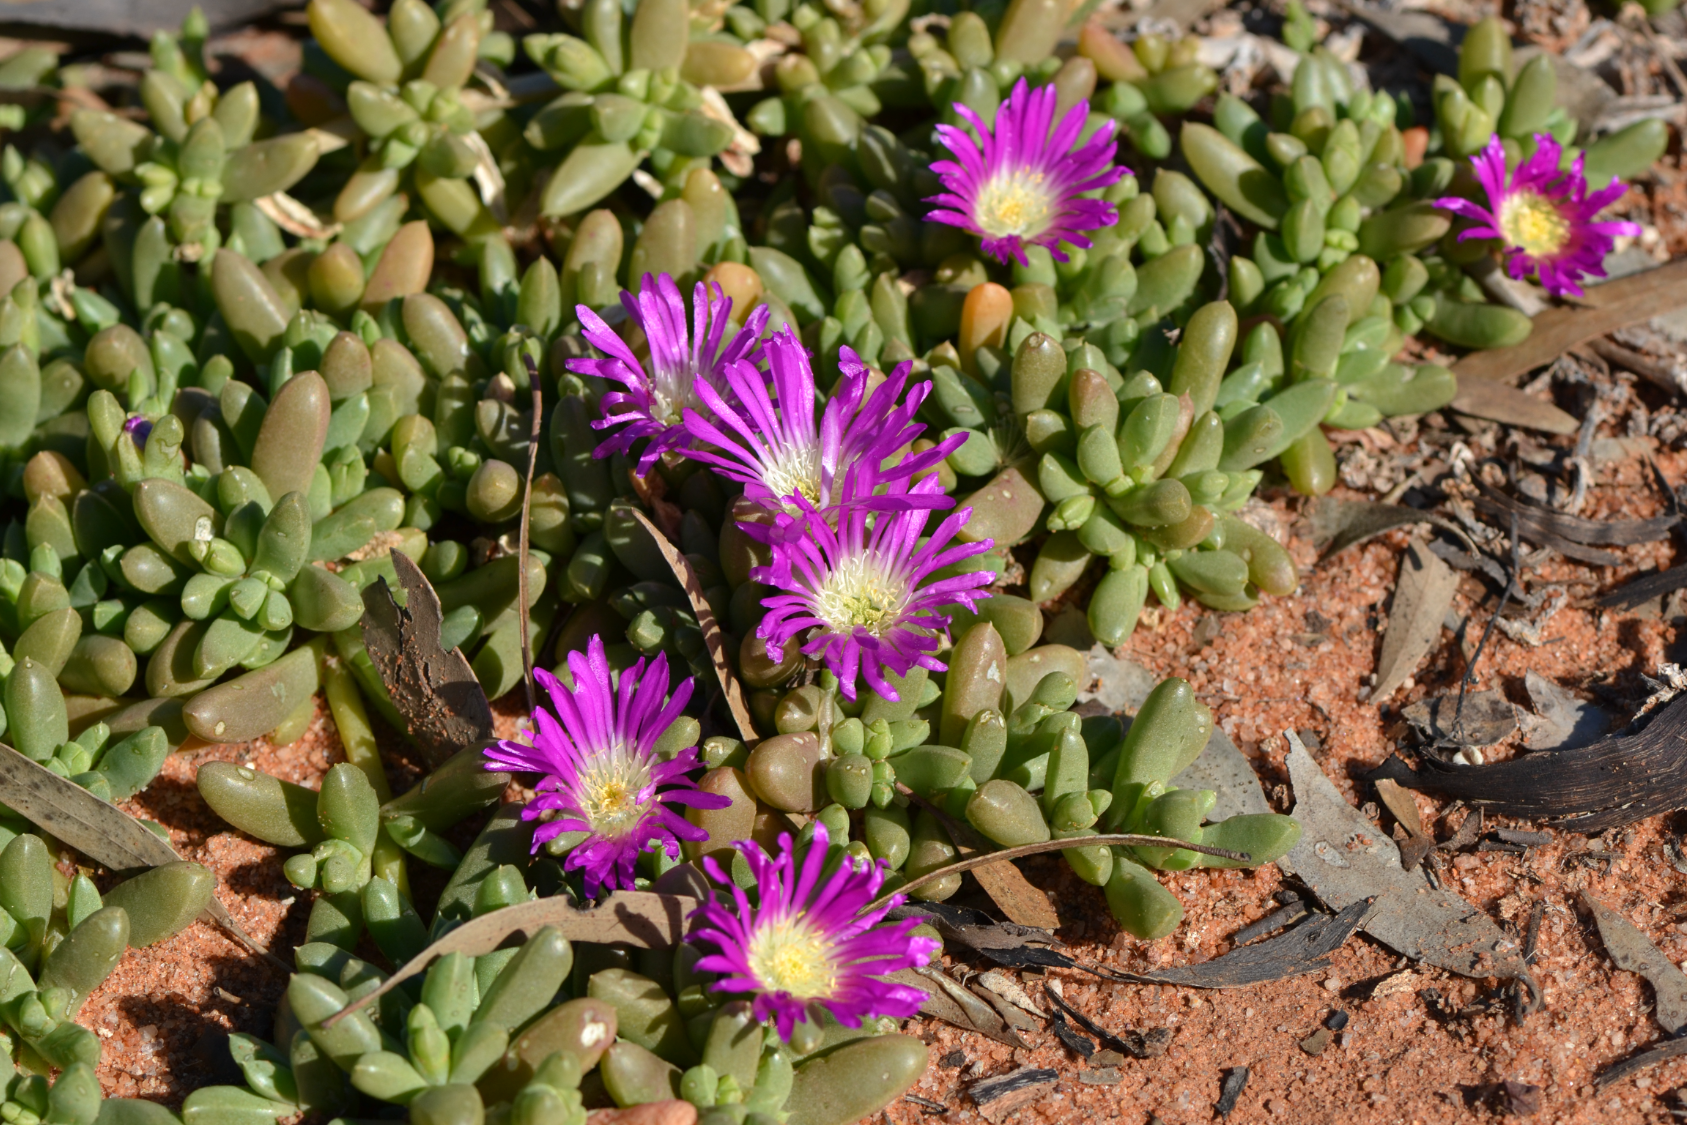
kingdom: Plantae
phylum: Tracheophyta
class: Magnoliopsida
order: Caryophyllales
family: Aizoaceae
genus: Disphyma
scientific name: Disphyma clavellatum
